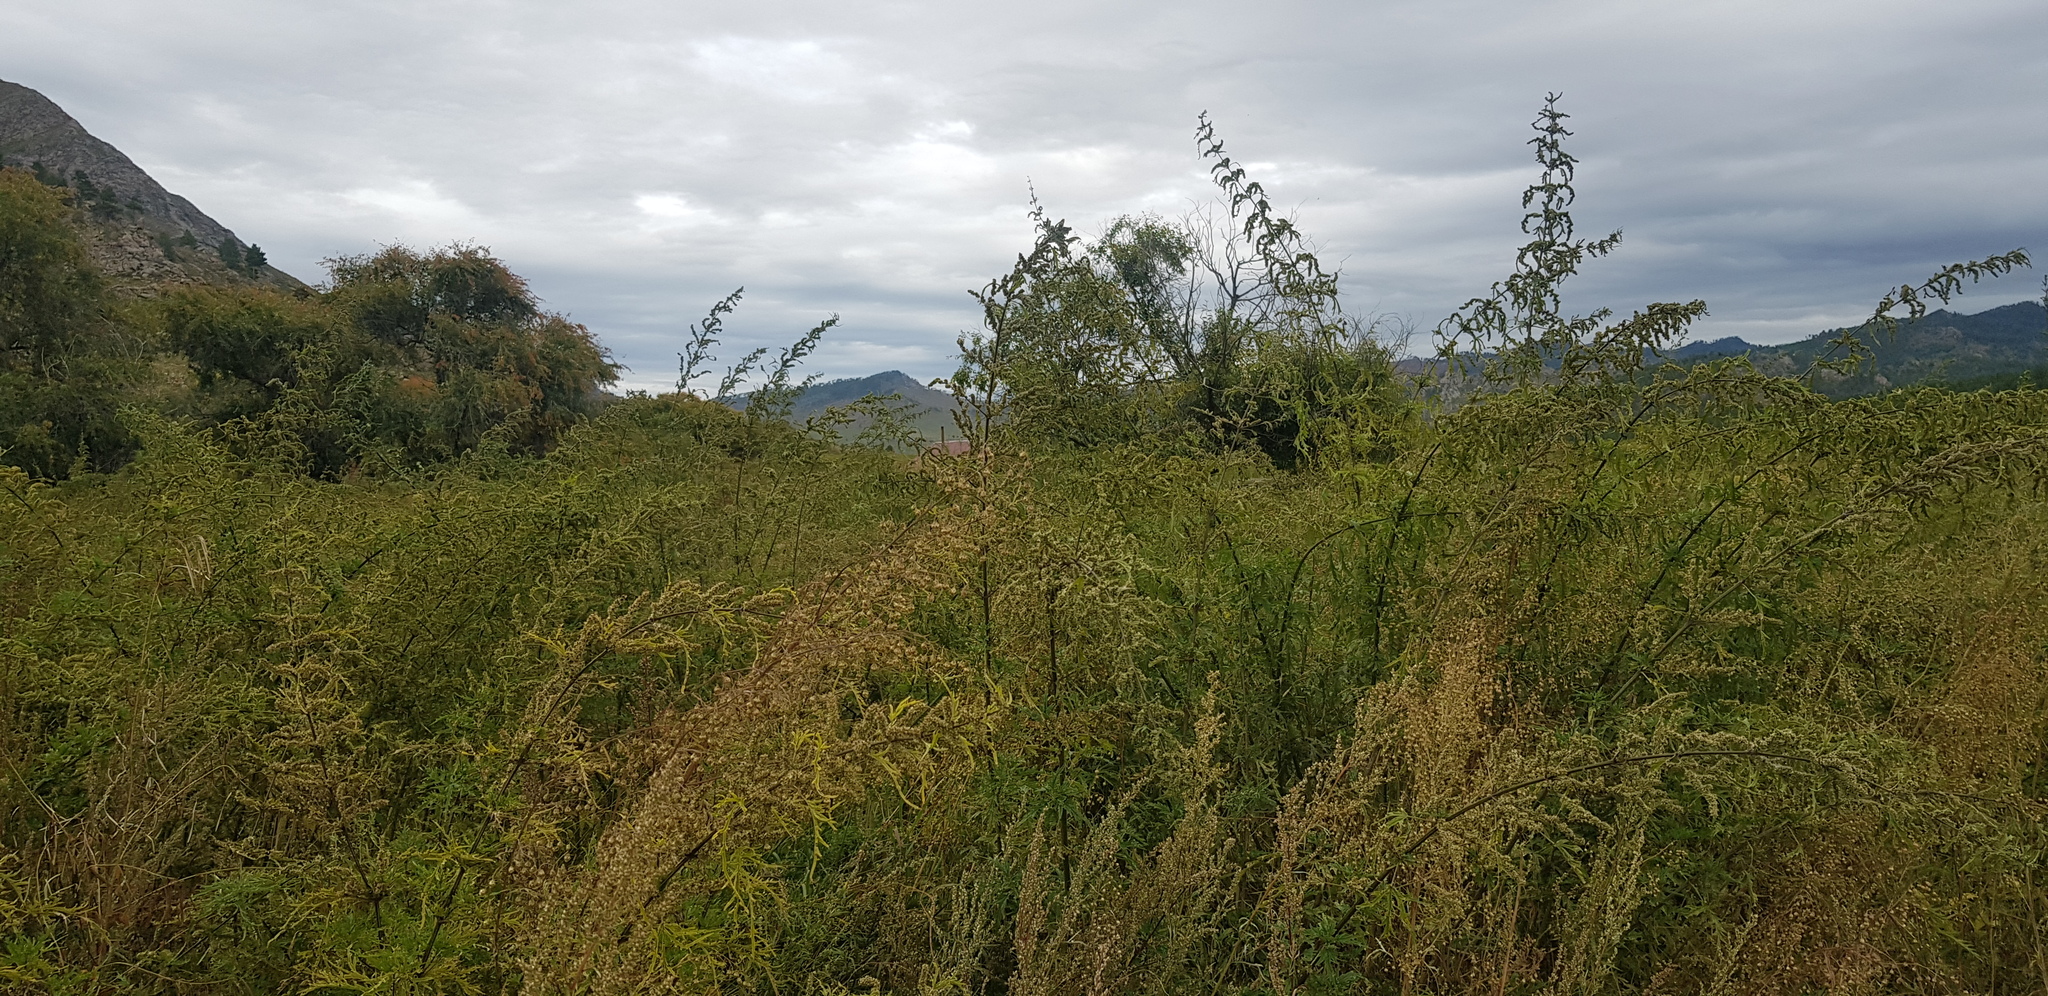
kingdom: Plantae
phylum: Tracheophyta
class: Magnoliopsida
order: Rosales
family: Urticaceae
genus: Urtica
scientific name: Urtica cannabina
